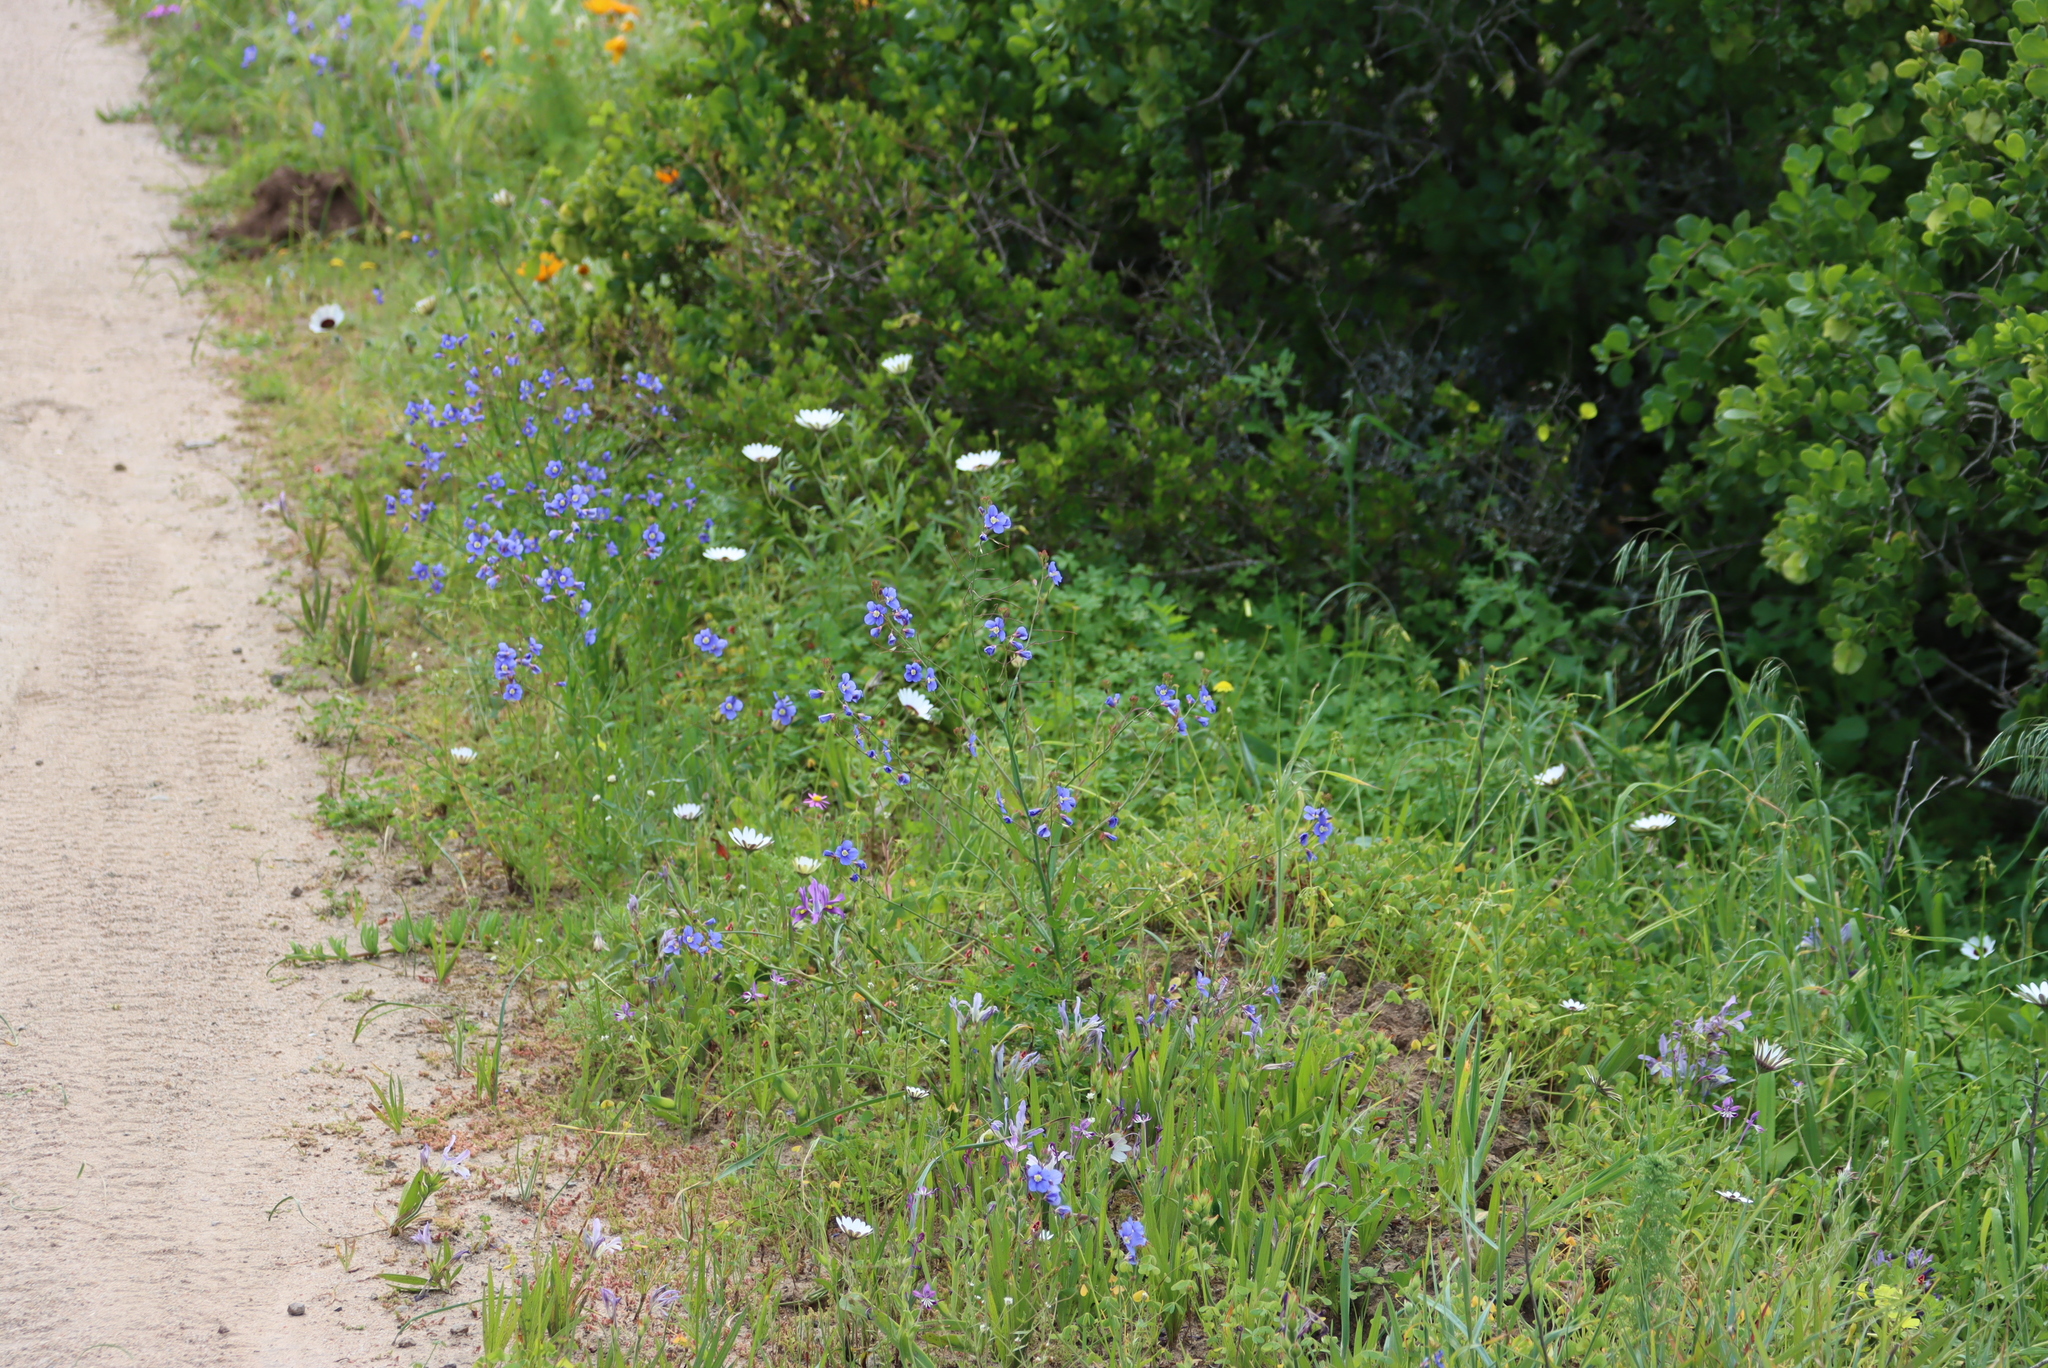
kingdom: Plantae
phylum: Tracheophyta
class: Magnoliopsida
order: Brassicales
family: Brassicaceae
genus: Heliophila
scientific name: Heliophila coronopifolia
